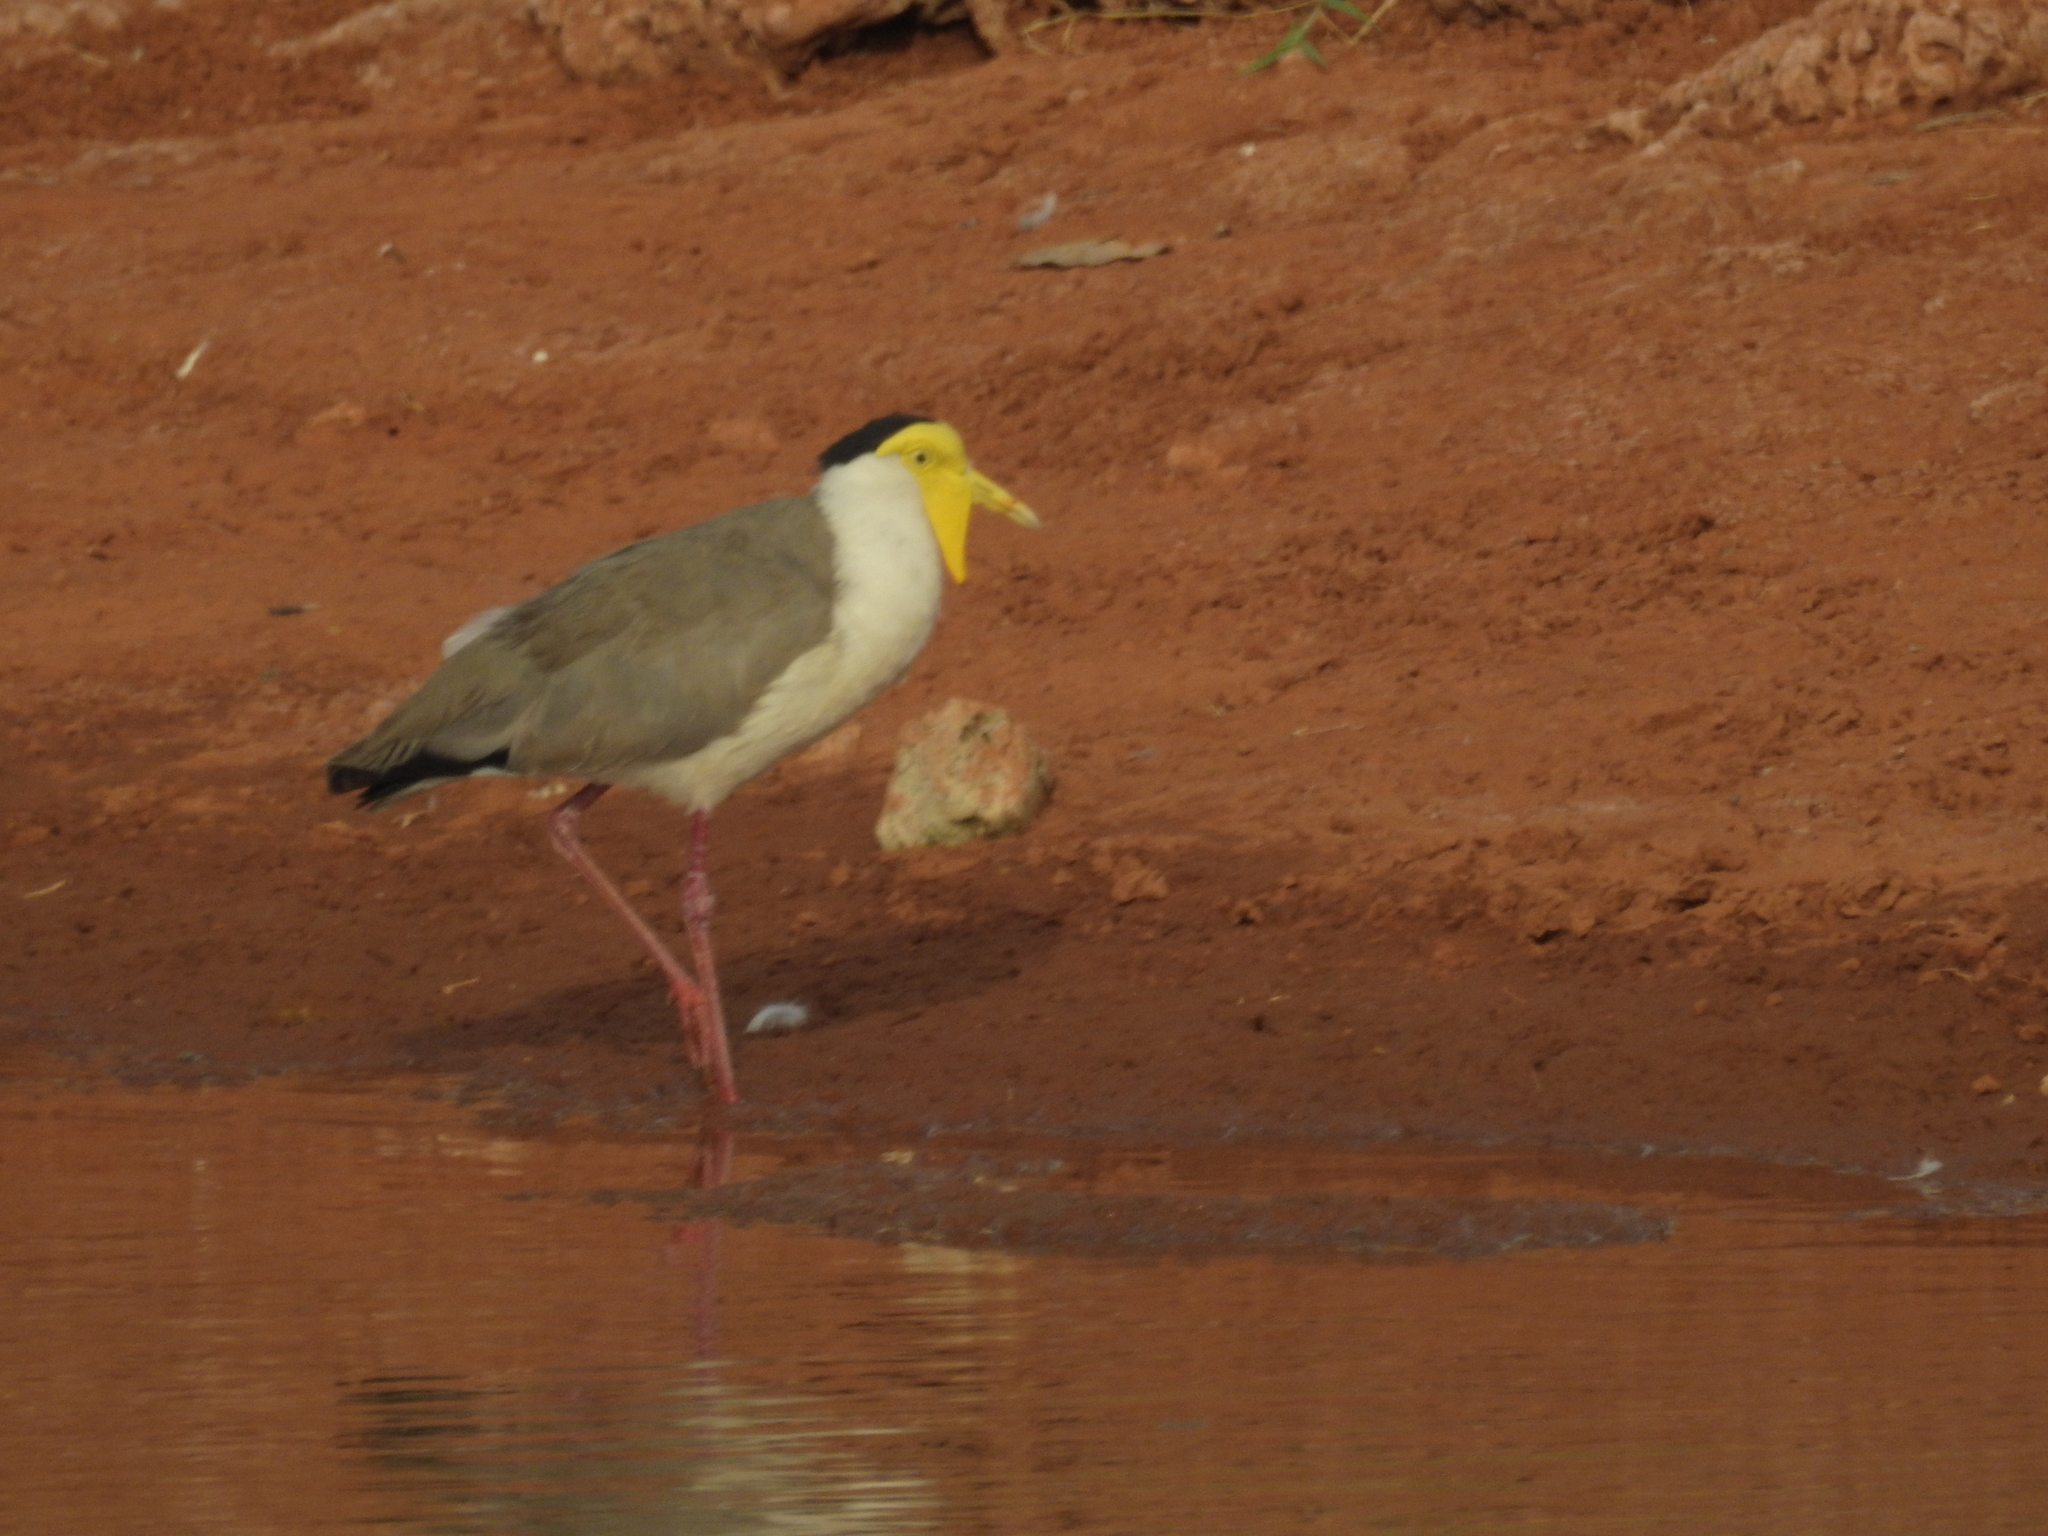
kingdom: Animalia
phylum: Chordata
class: Aves
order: Charadriiformes
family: Charadriidae
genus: Vanellus
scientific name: Vanellus miles
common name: Masked lapwing
